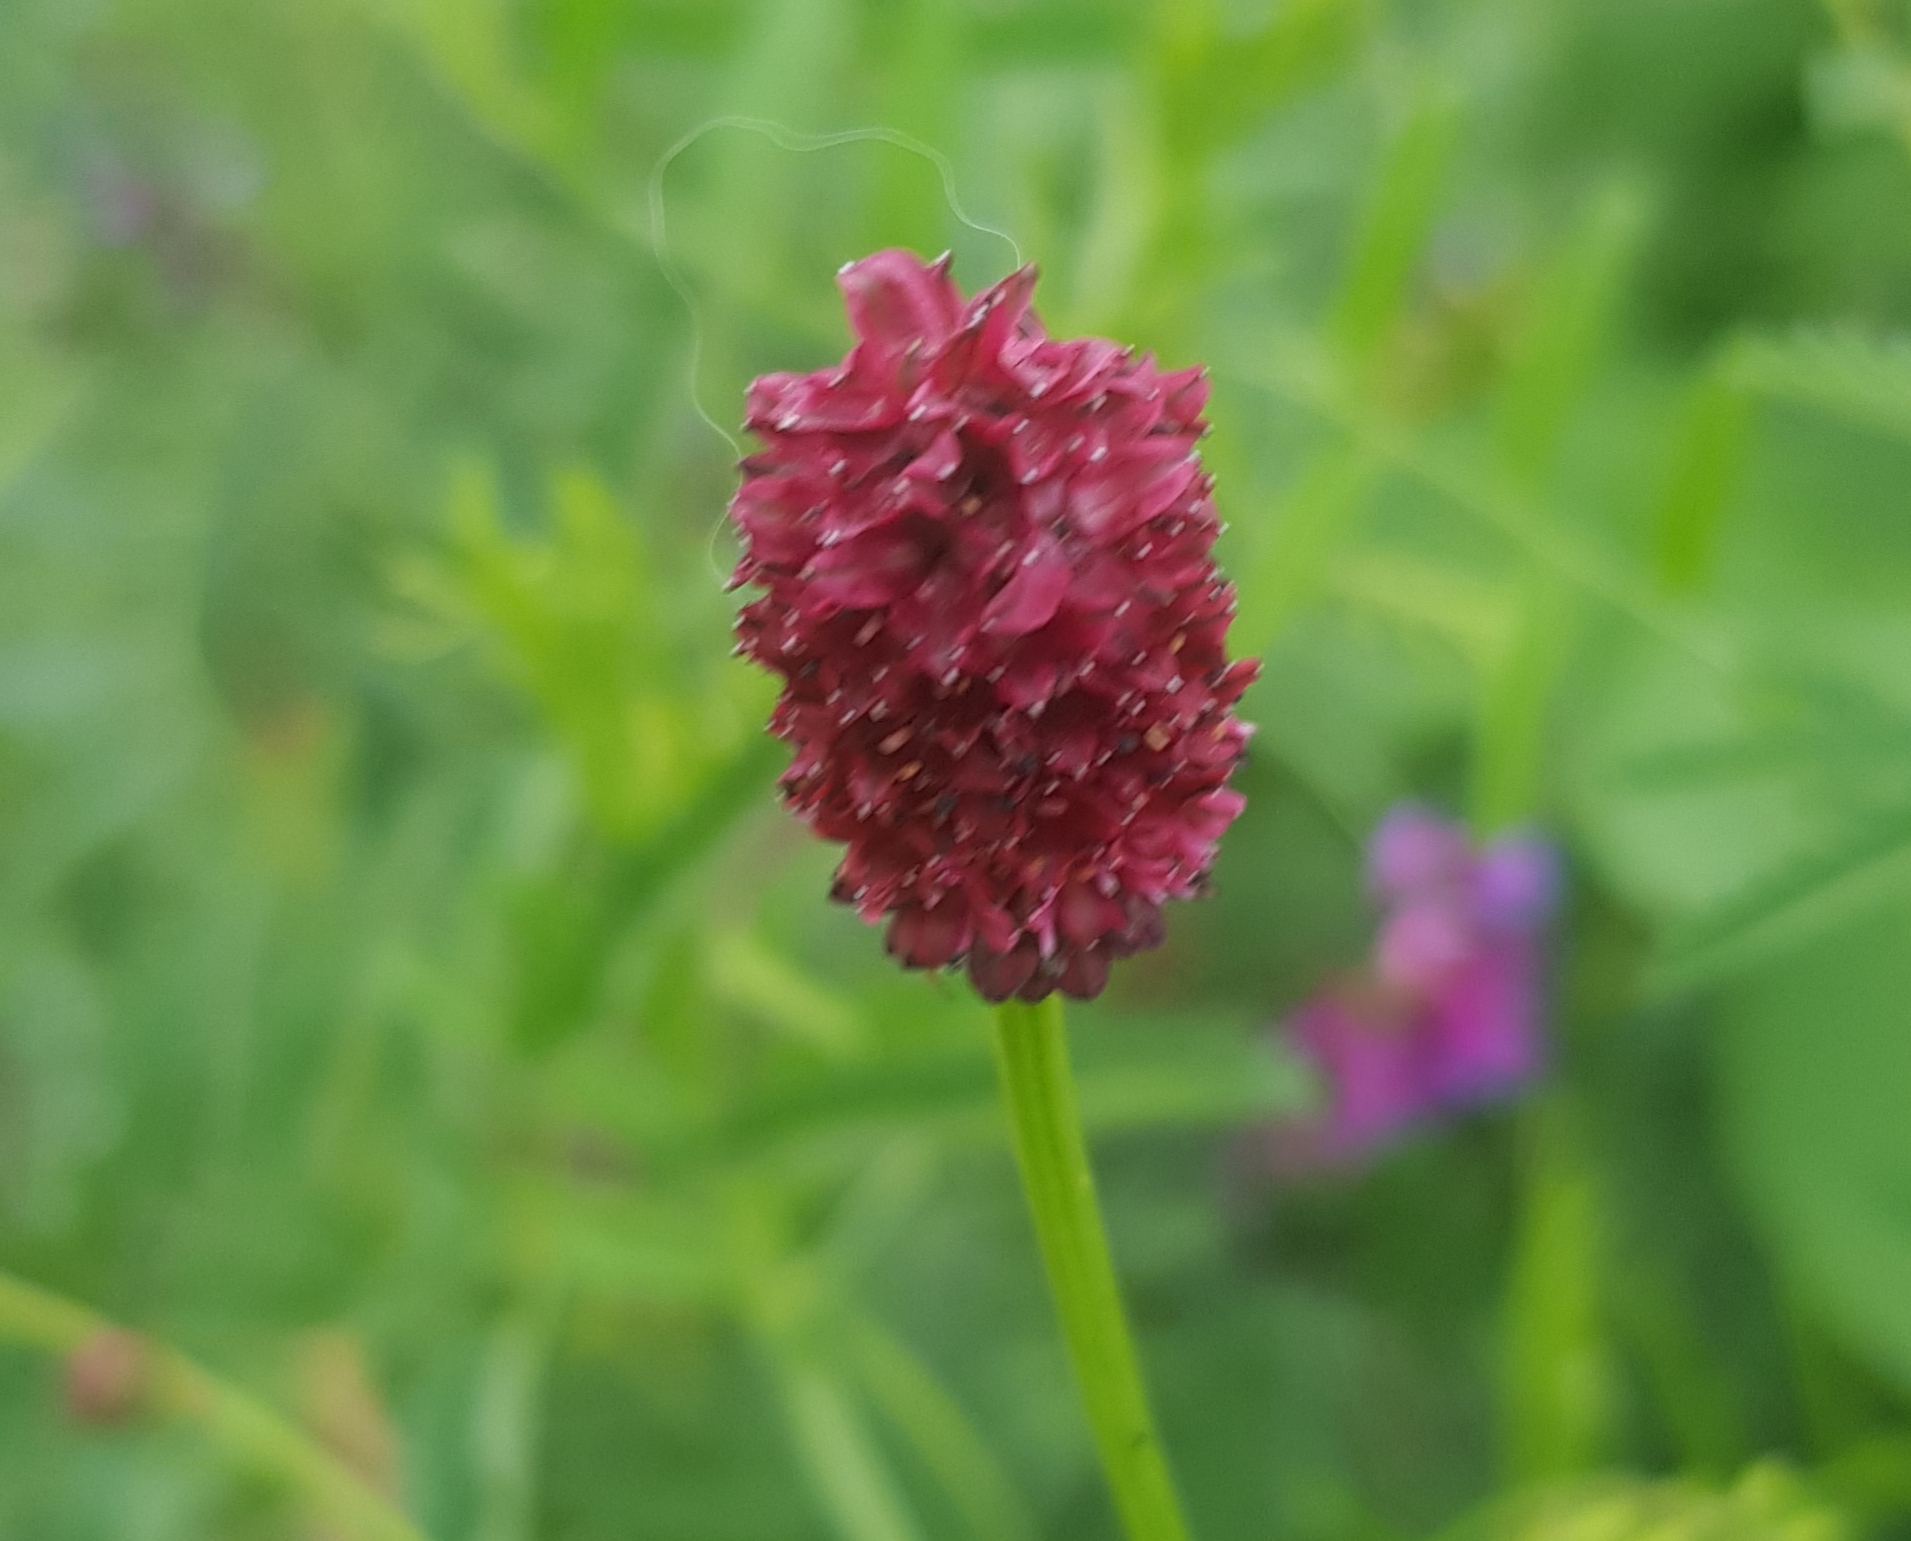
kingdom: Plantae
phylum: Tracheophyta
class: Magnoliopsida
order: Rosales
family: Rosaceae
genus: Sanguisorba
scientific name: Sanguisorba officinalis
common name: Great burnet
